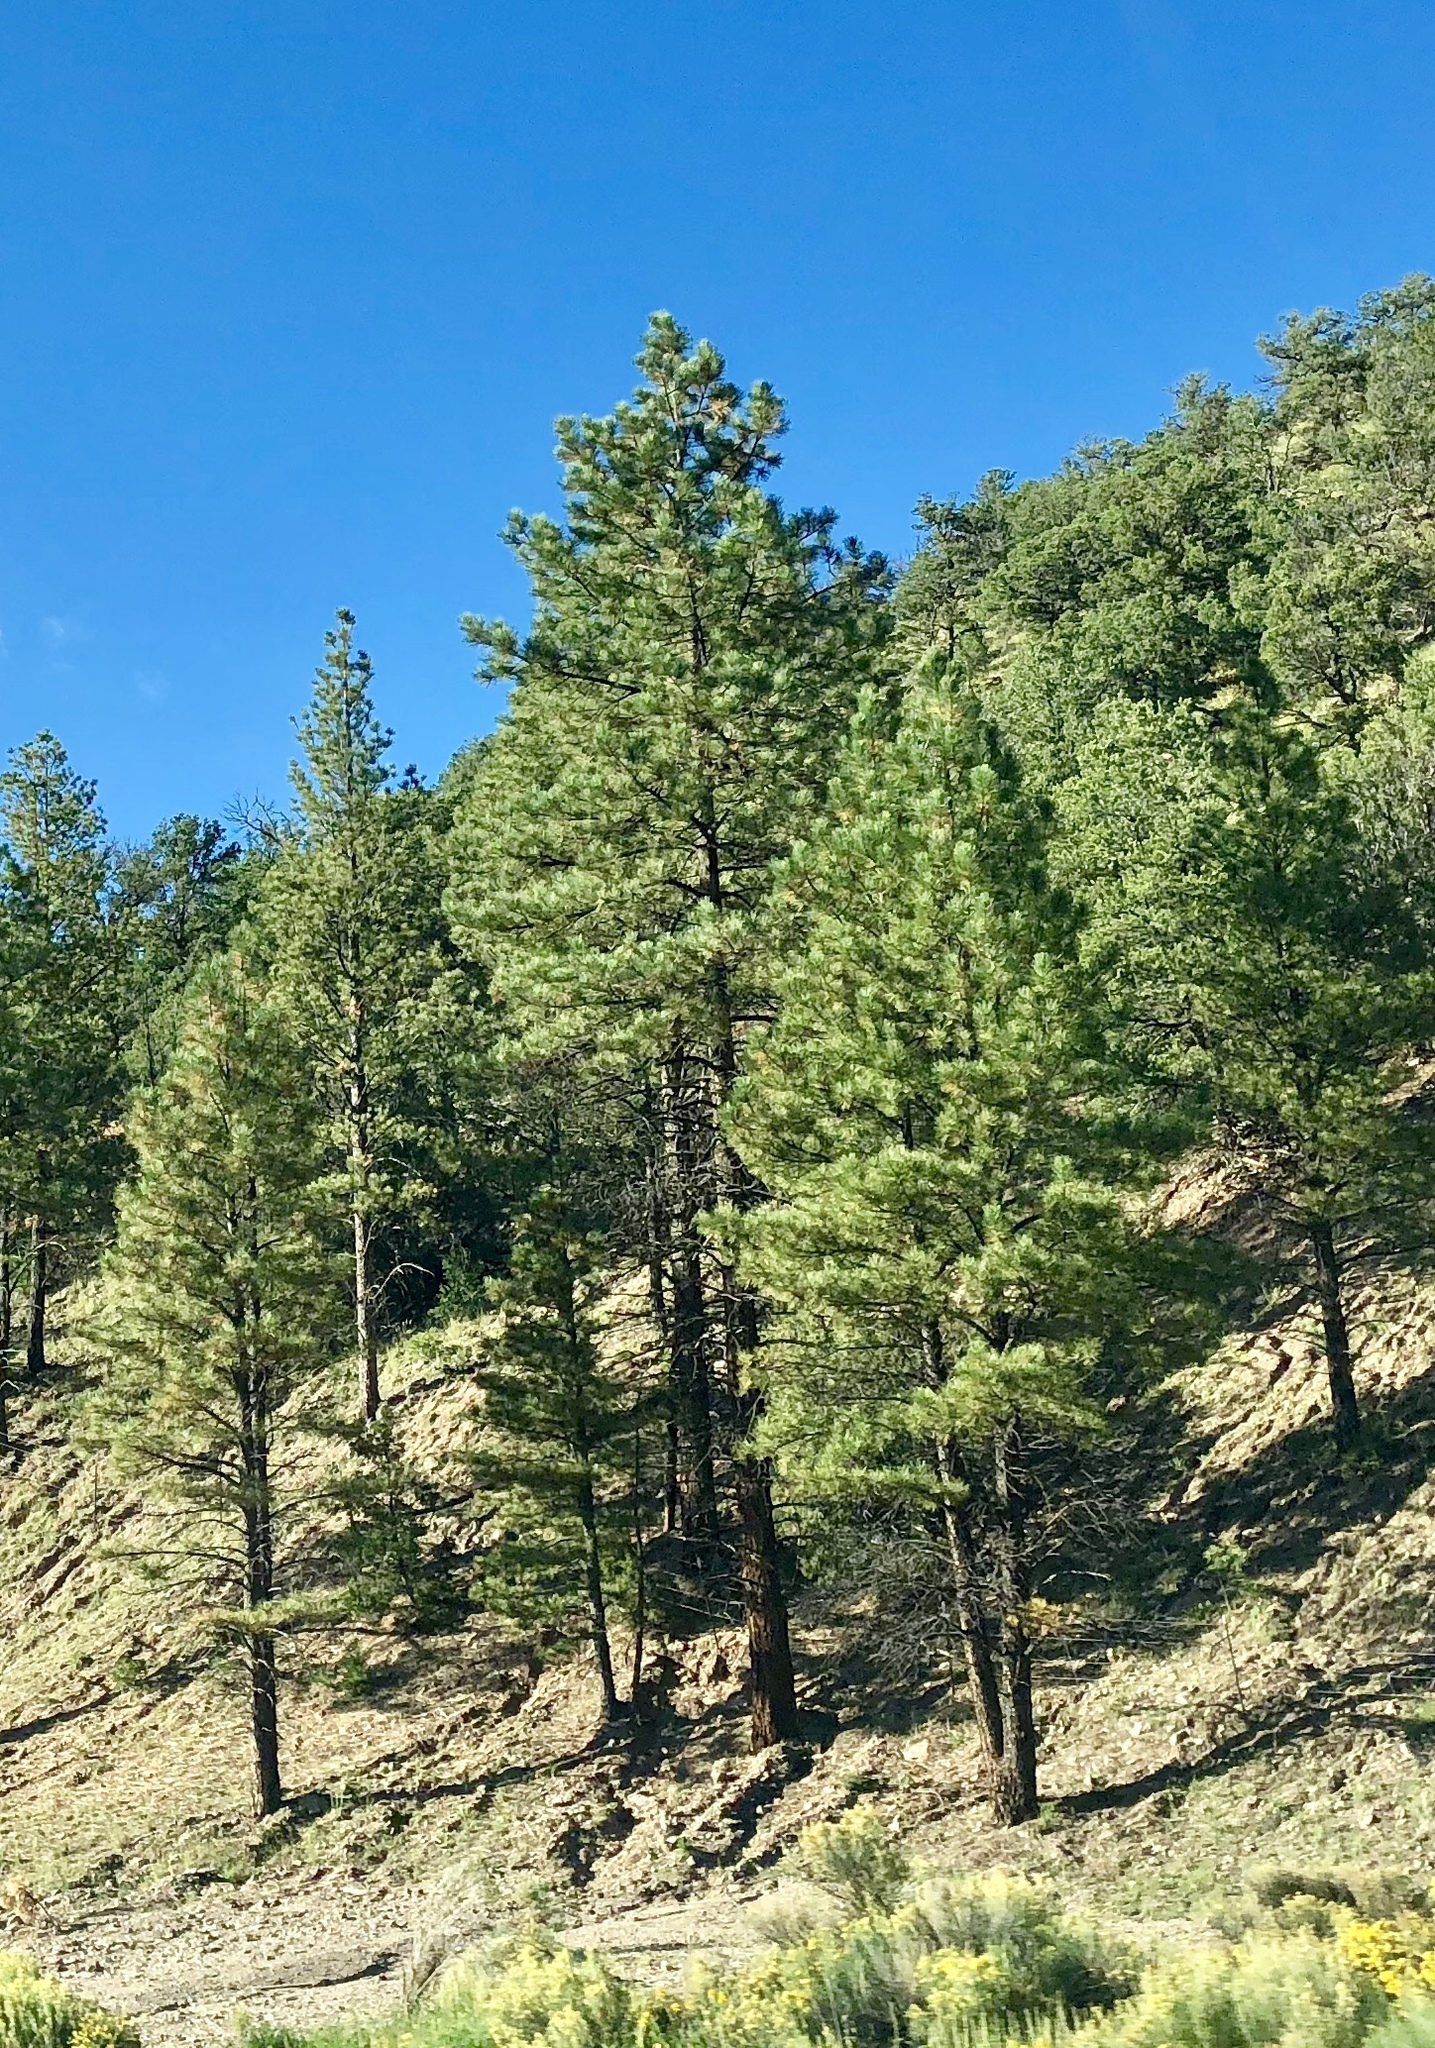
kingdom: Plantae
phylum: Tracheophyta
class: Pinopsida
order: Pinales
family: Pinaceae
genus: Pinus
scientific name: Pinus ponderosa
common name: Western yellow-pine
